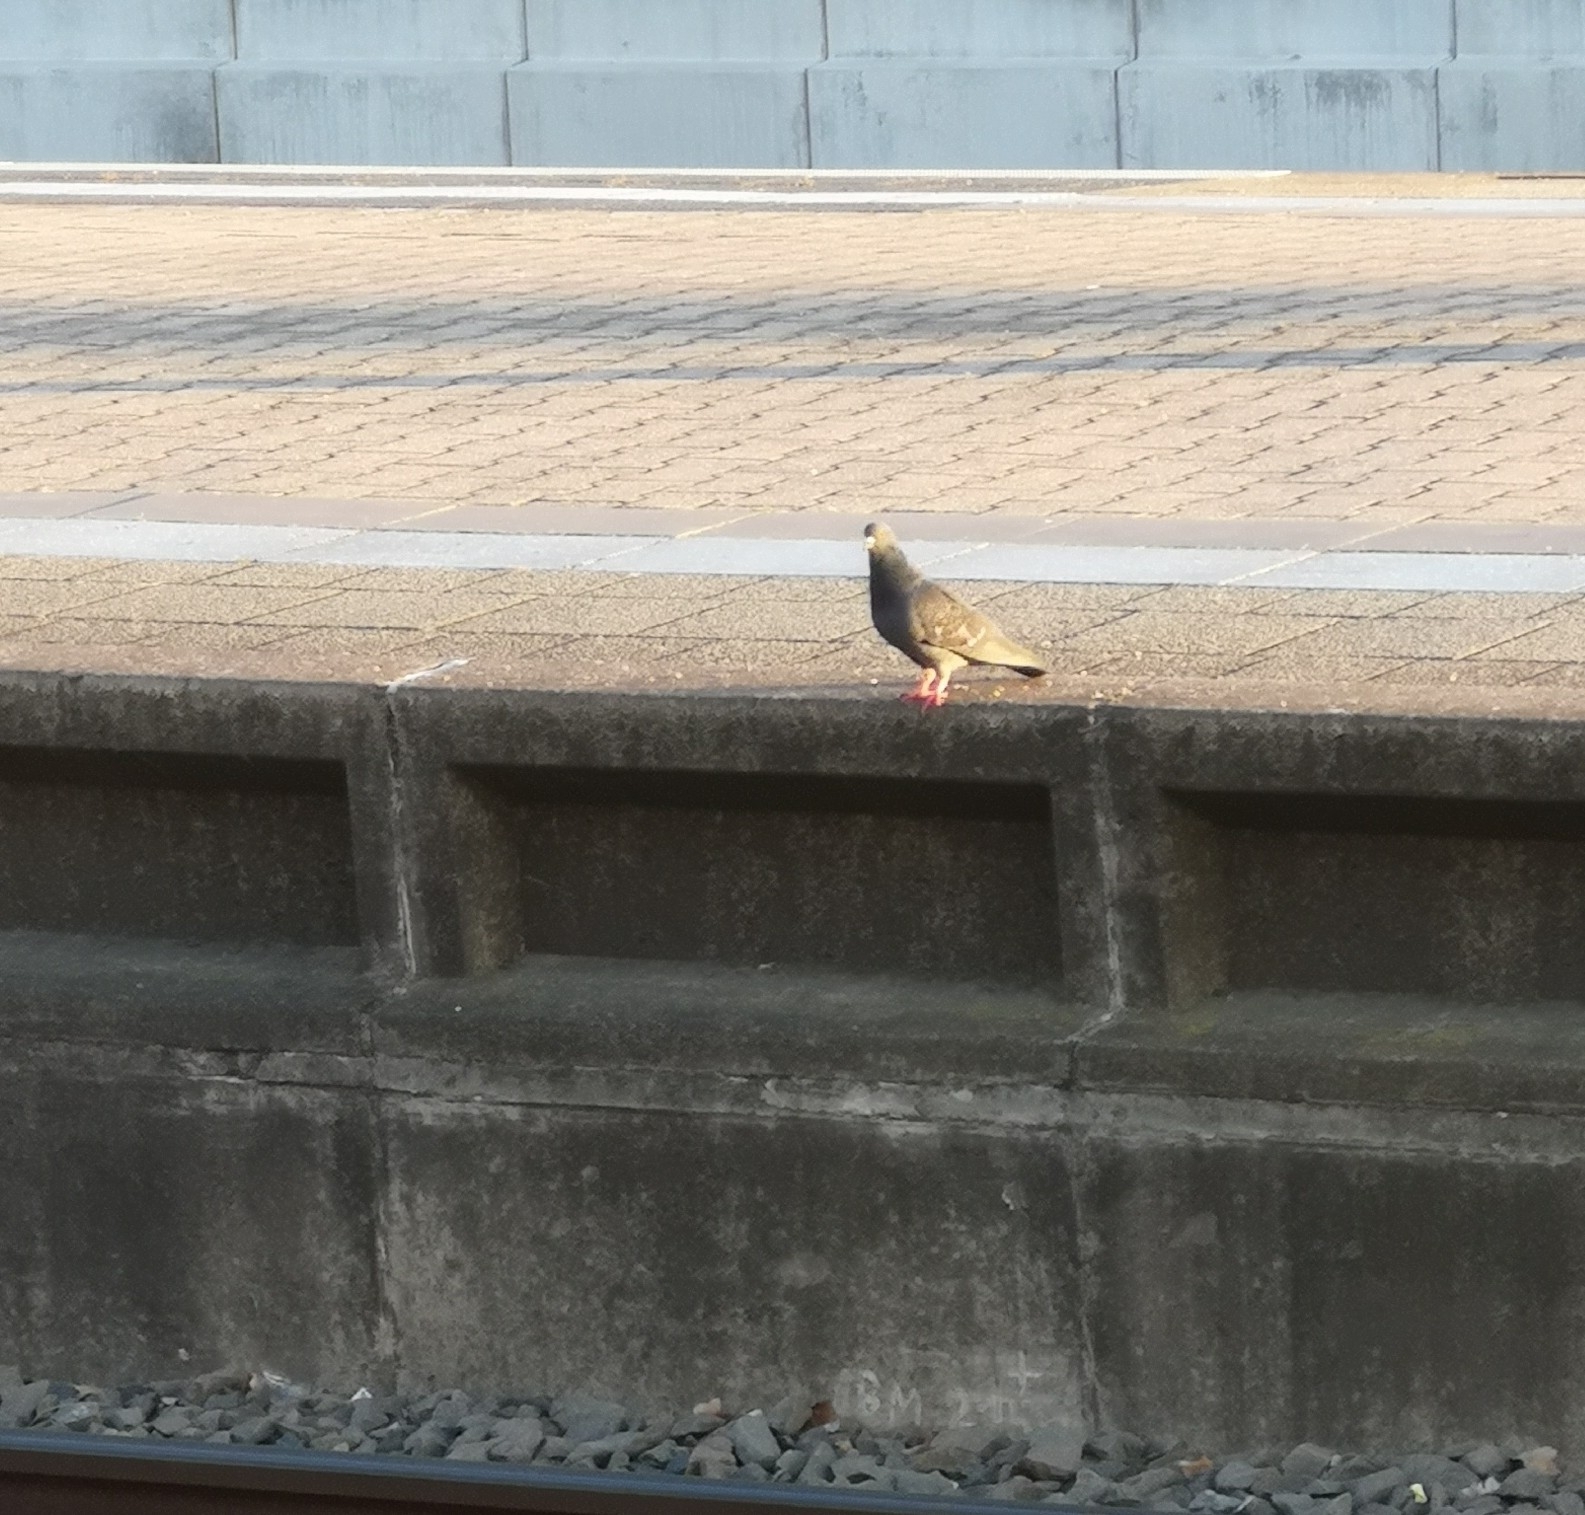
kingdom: Animalia
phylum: Chordata
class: Aves
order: Columbiformes
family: Columbidae
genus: Columba
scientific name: Columba livia
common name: Rock pigeon
